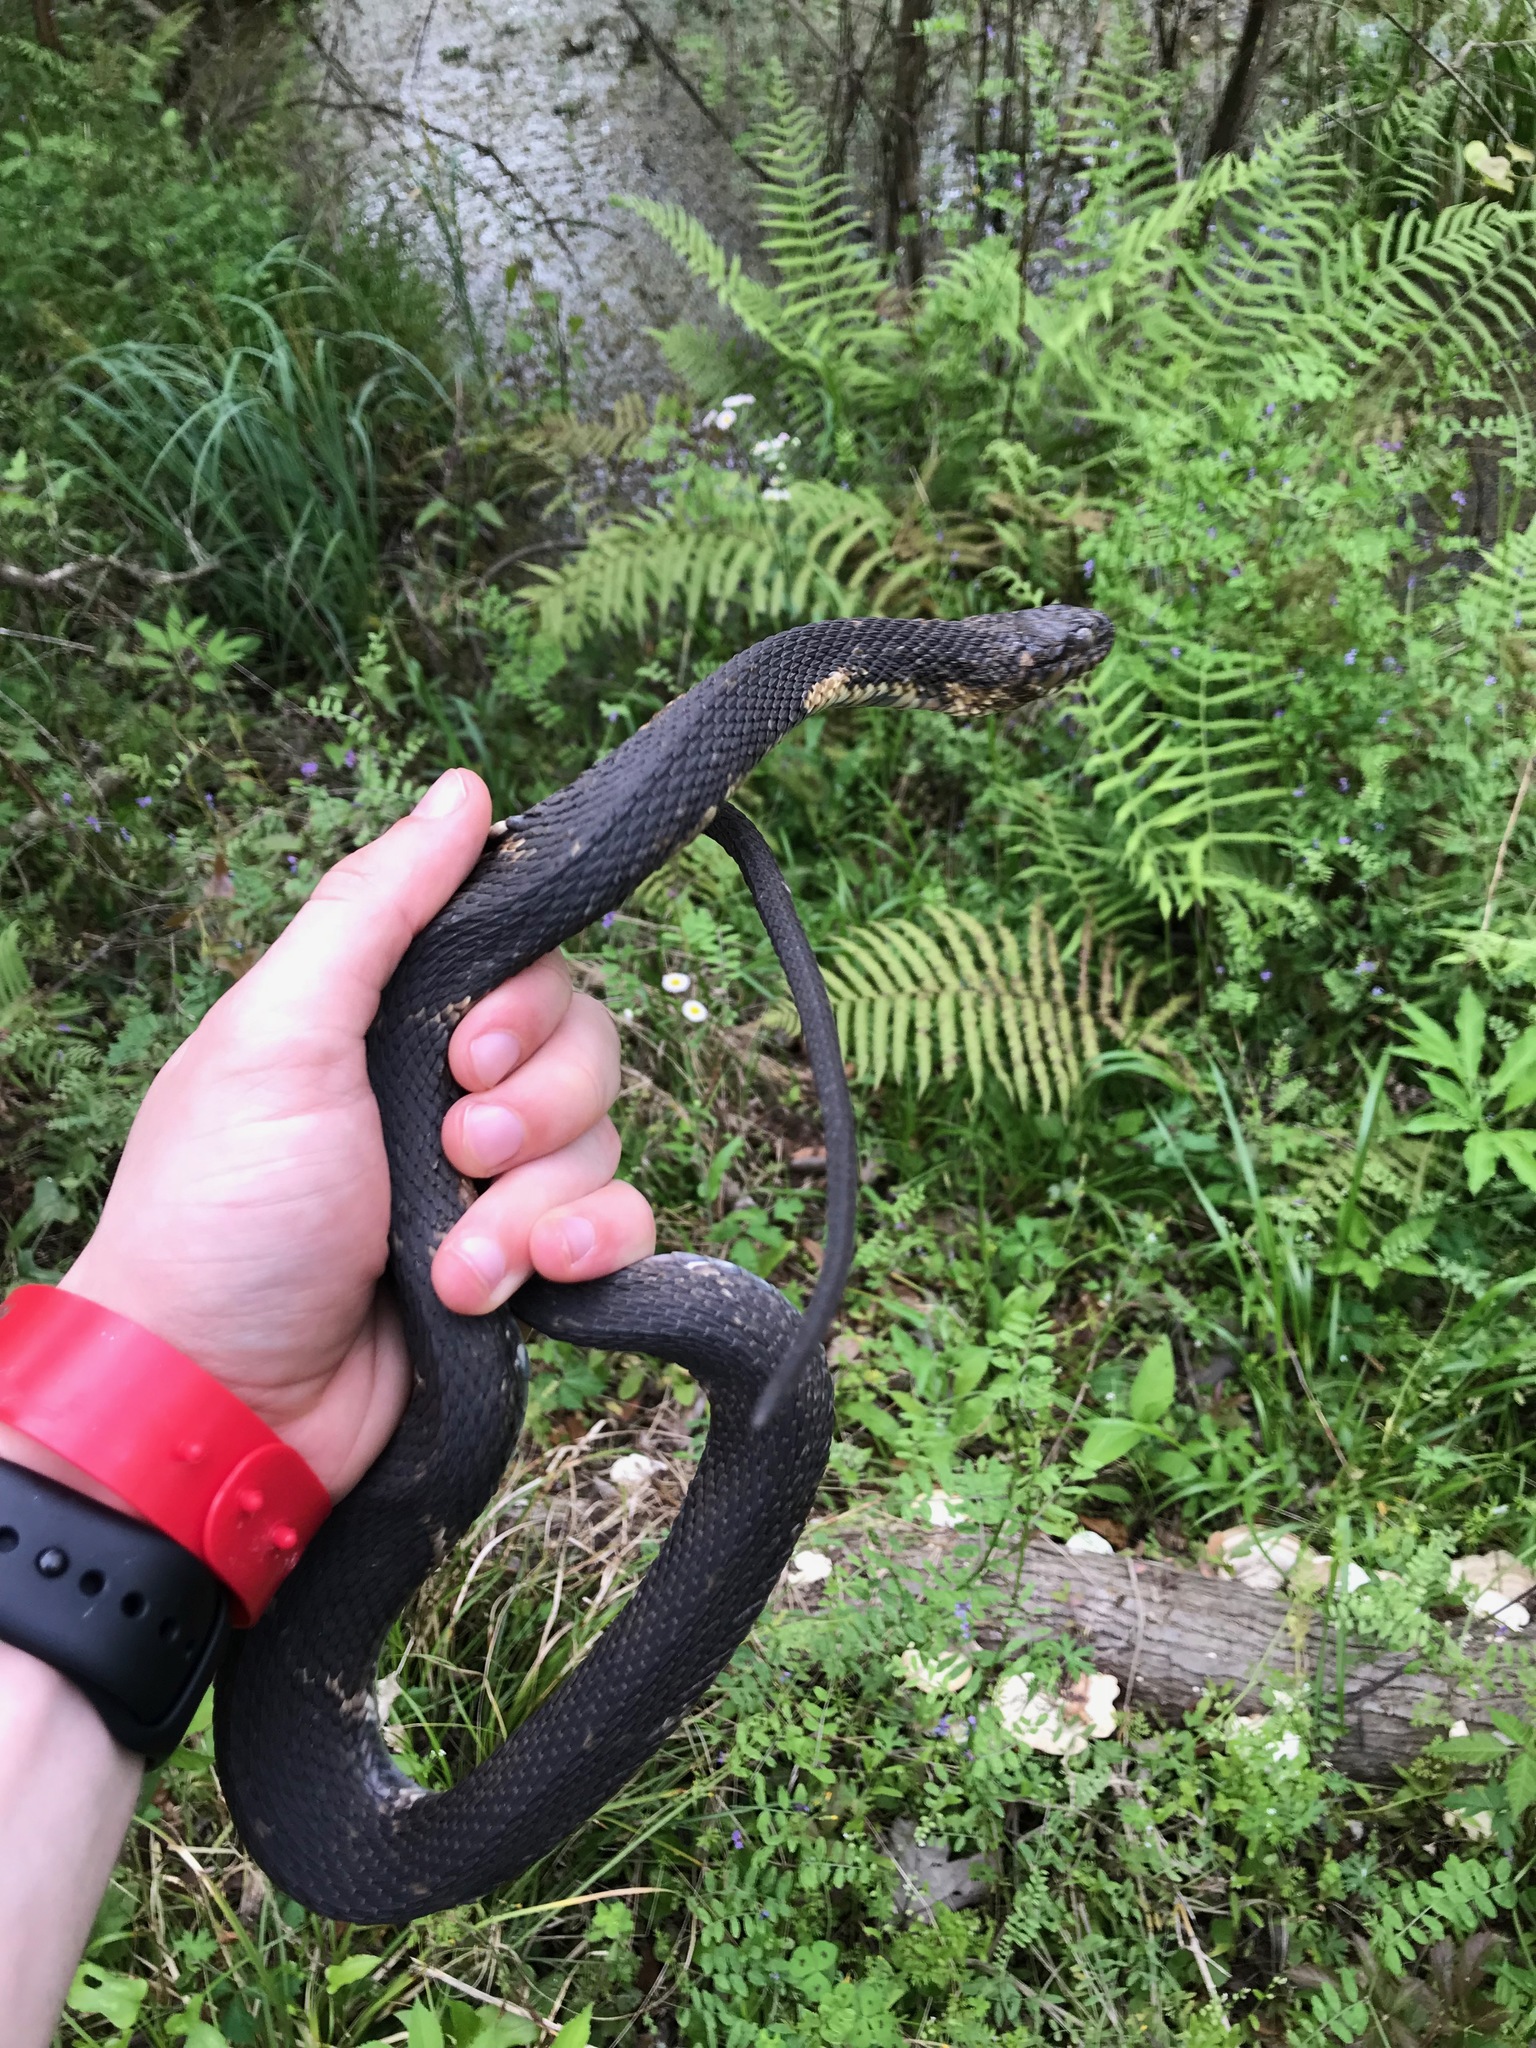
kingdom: Animalia
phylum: Chordata
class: Squamata
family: Colubridae
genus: Nerodia
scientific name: Nerodia fasciata
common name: Southern water snake
